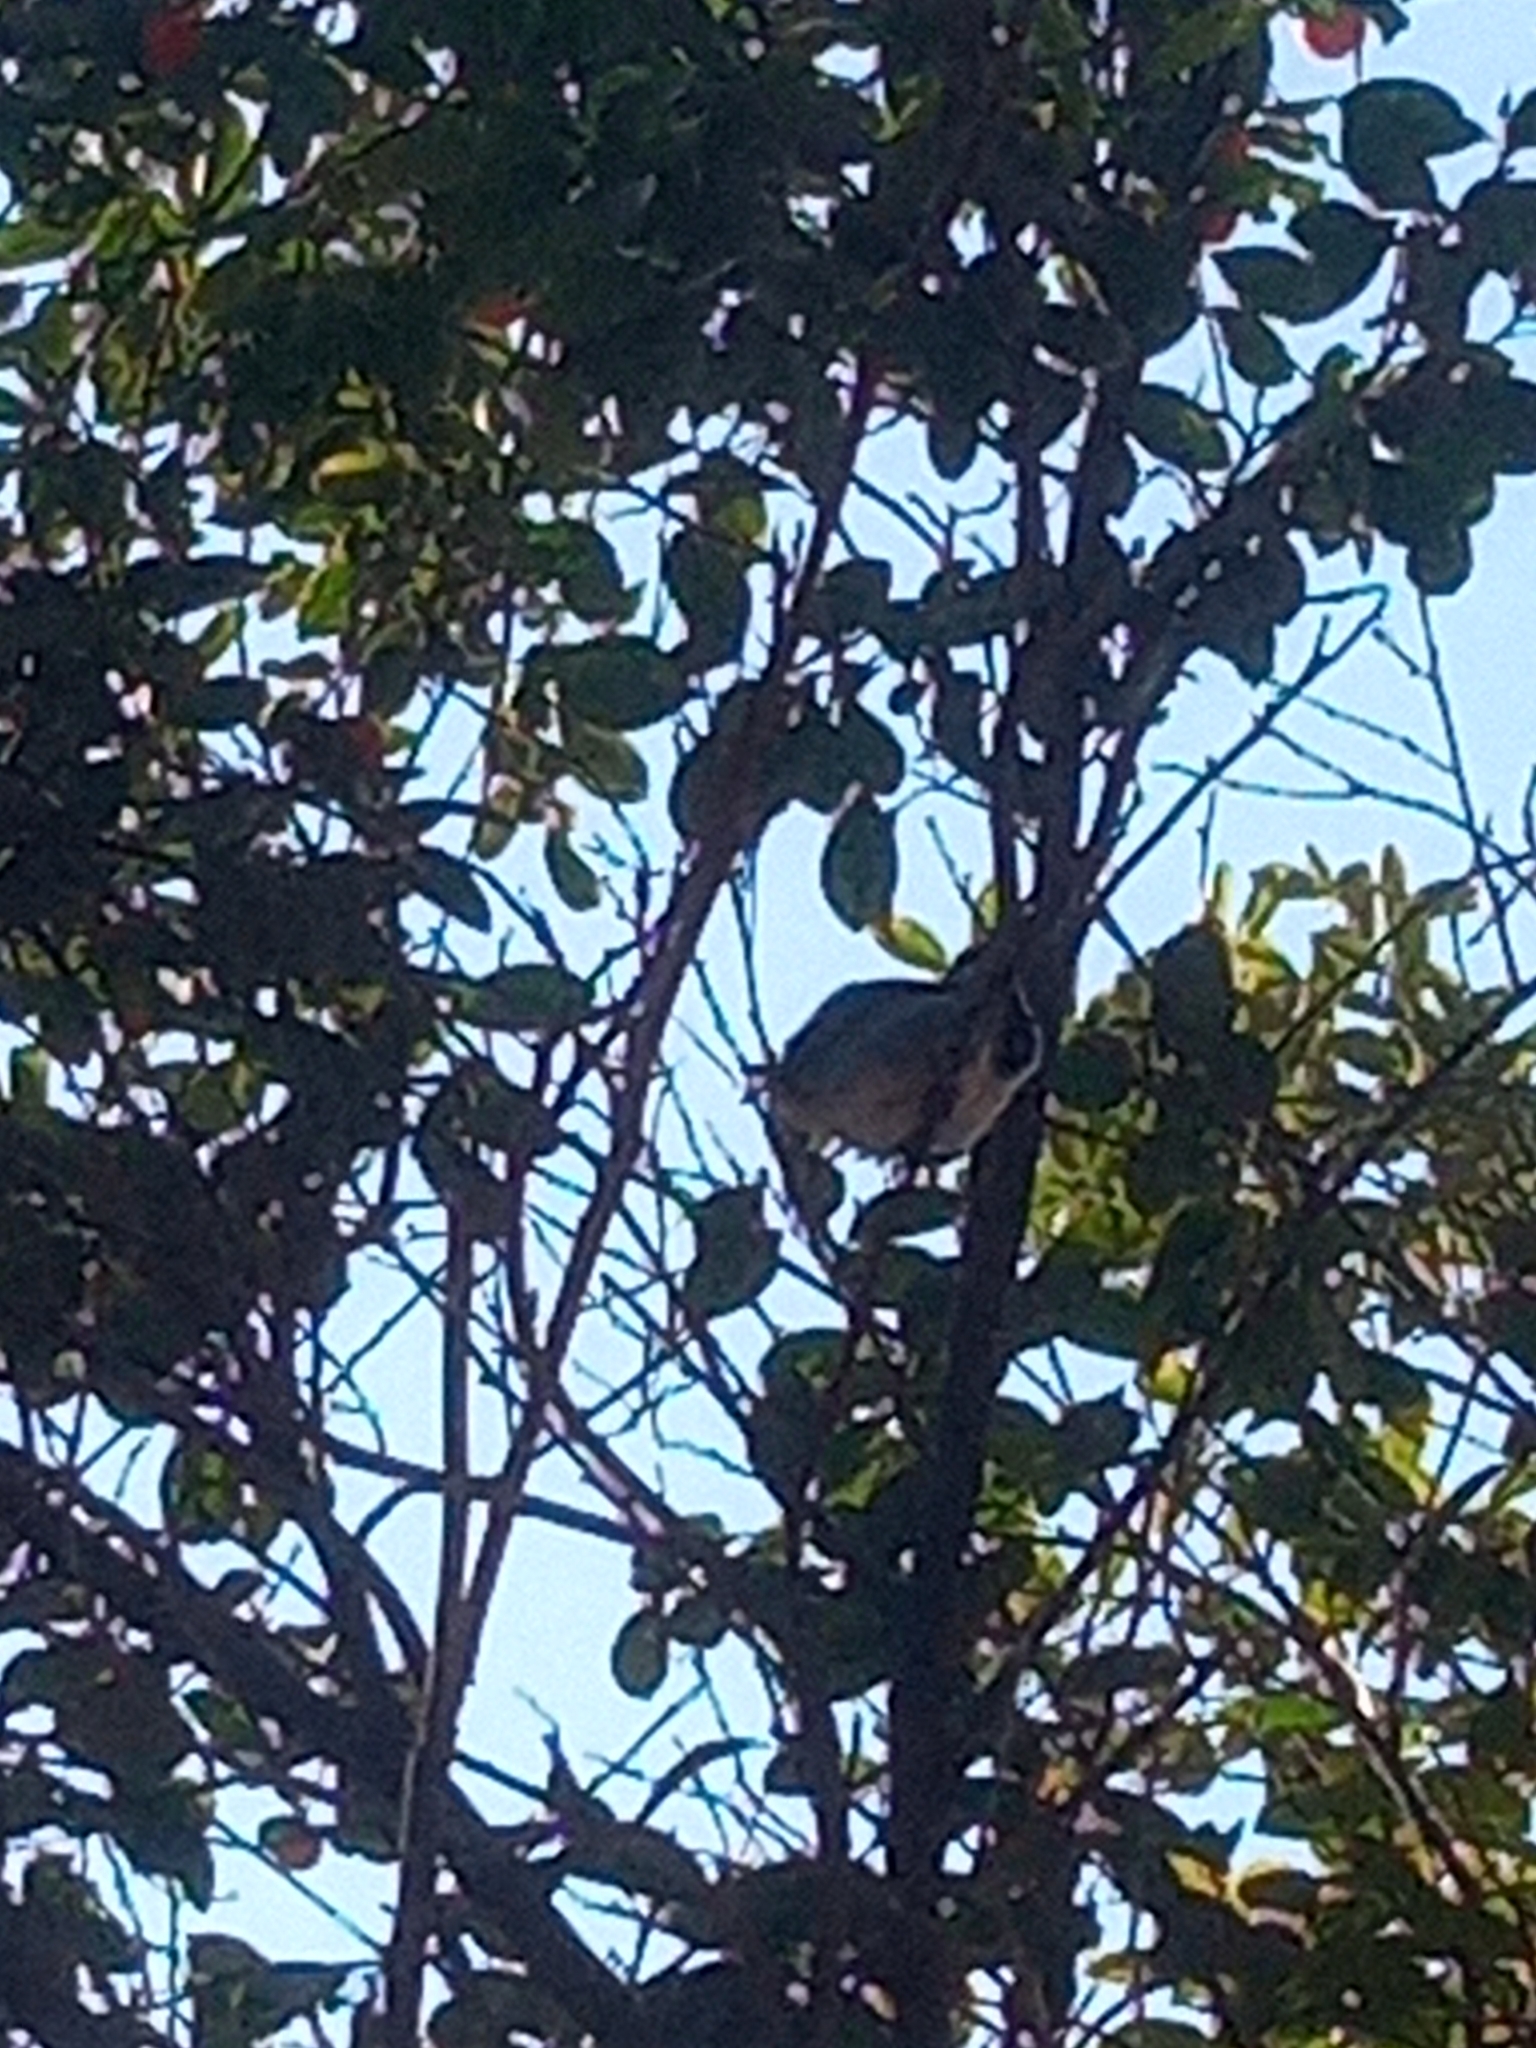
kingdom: Animalia
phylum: Chordata
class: Aves
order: Passeriformes
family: Passeridae
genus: Passer
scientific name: Passer domesticus
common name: House sparrow
